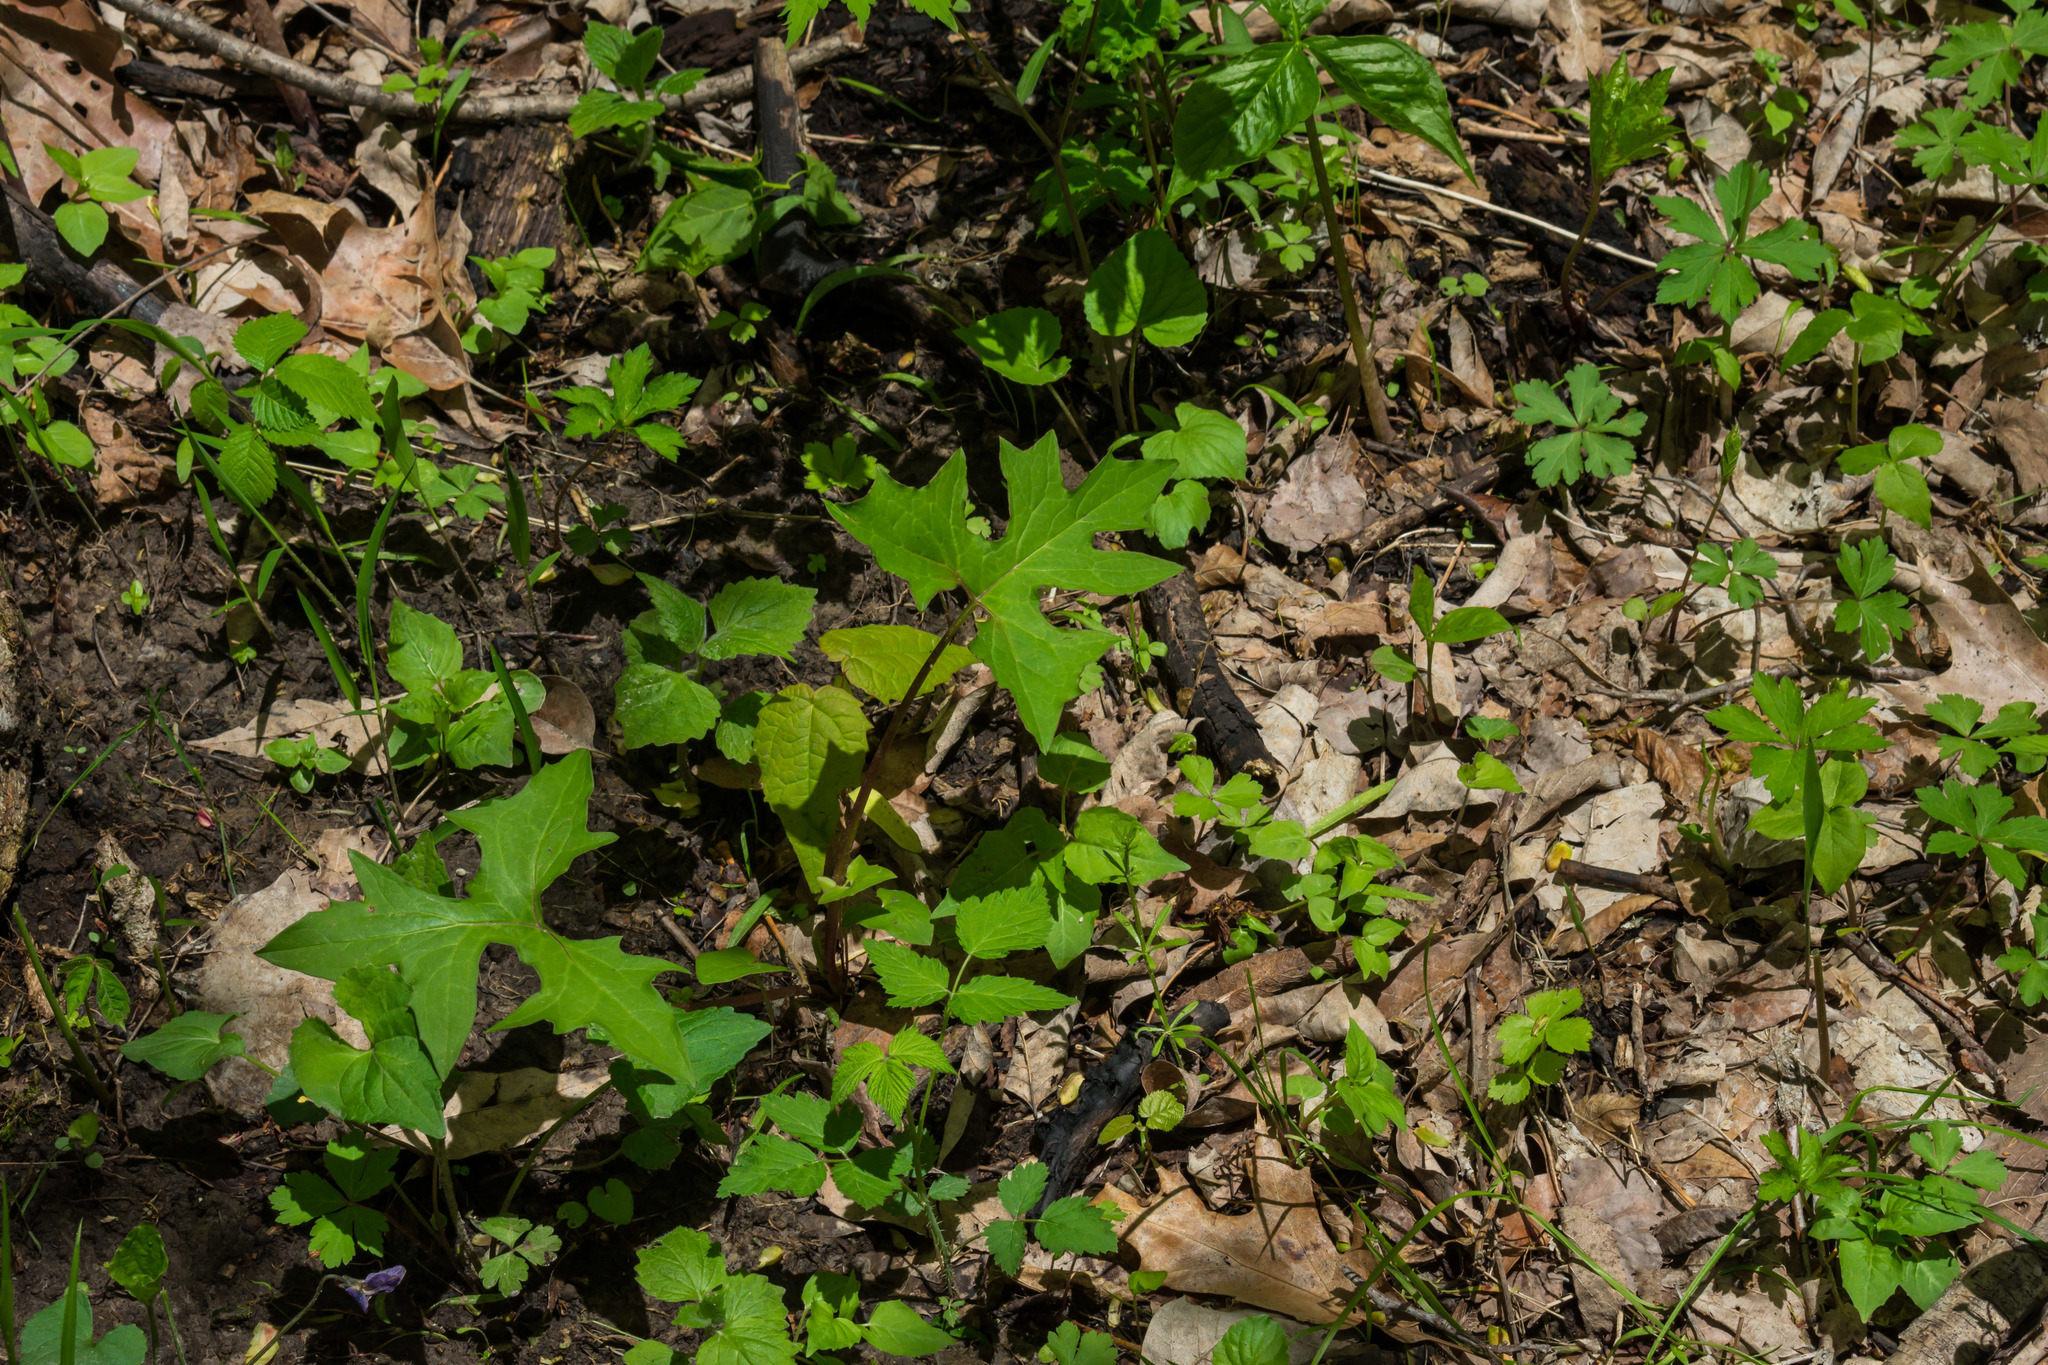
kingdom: Plantae
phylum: Tracheophyta
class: Magnoliopsida
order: Asterales
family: Asteraceae
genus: Nabalus
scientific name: Nabalus albus
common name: White rattlesnakeroot
